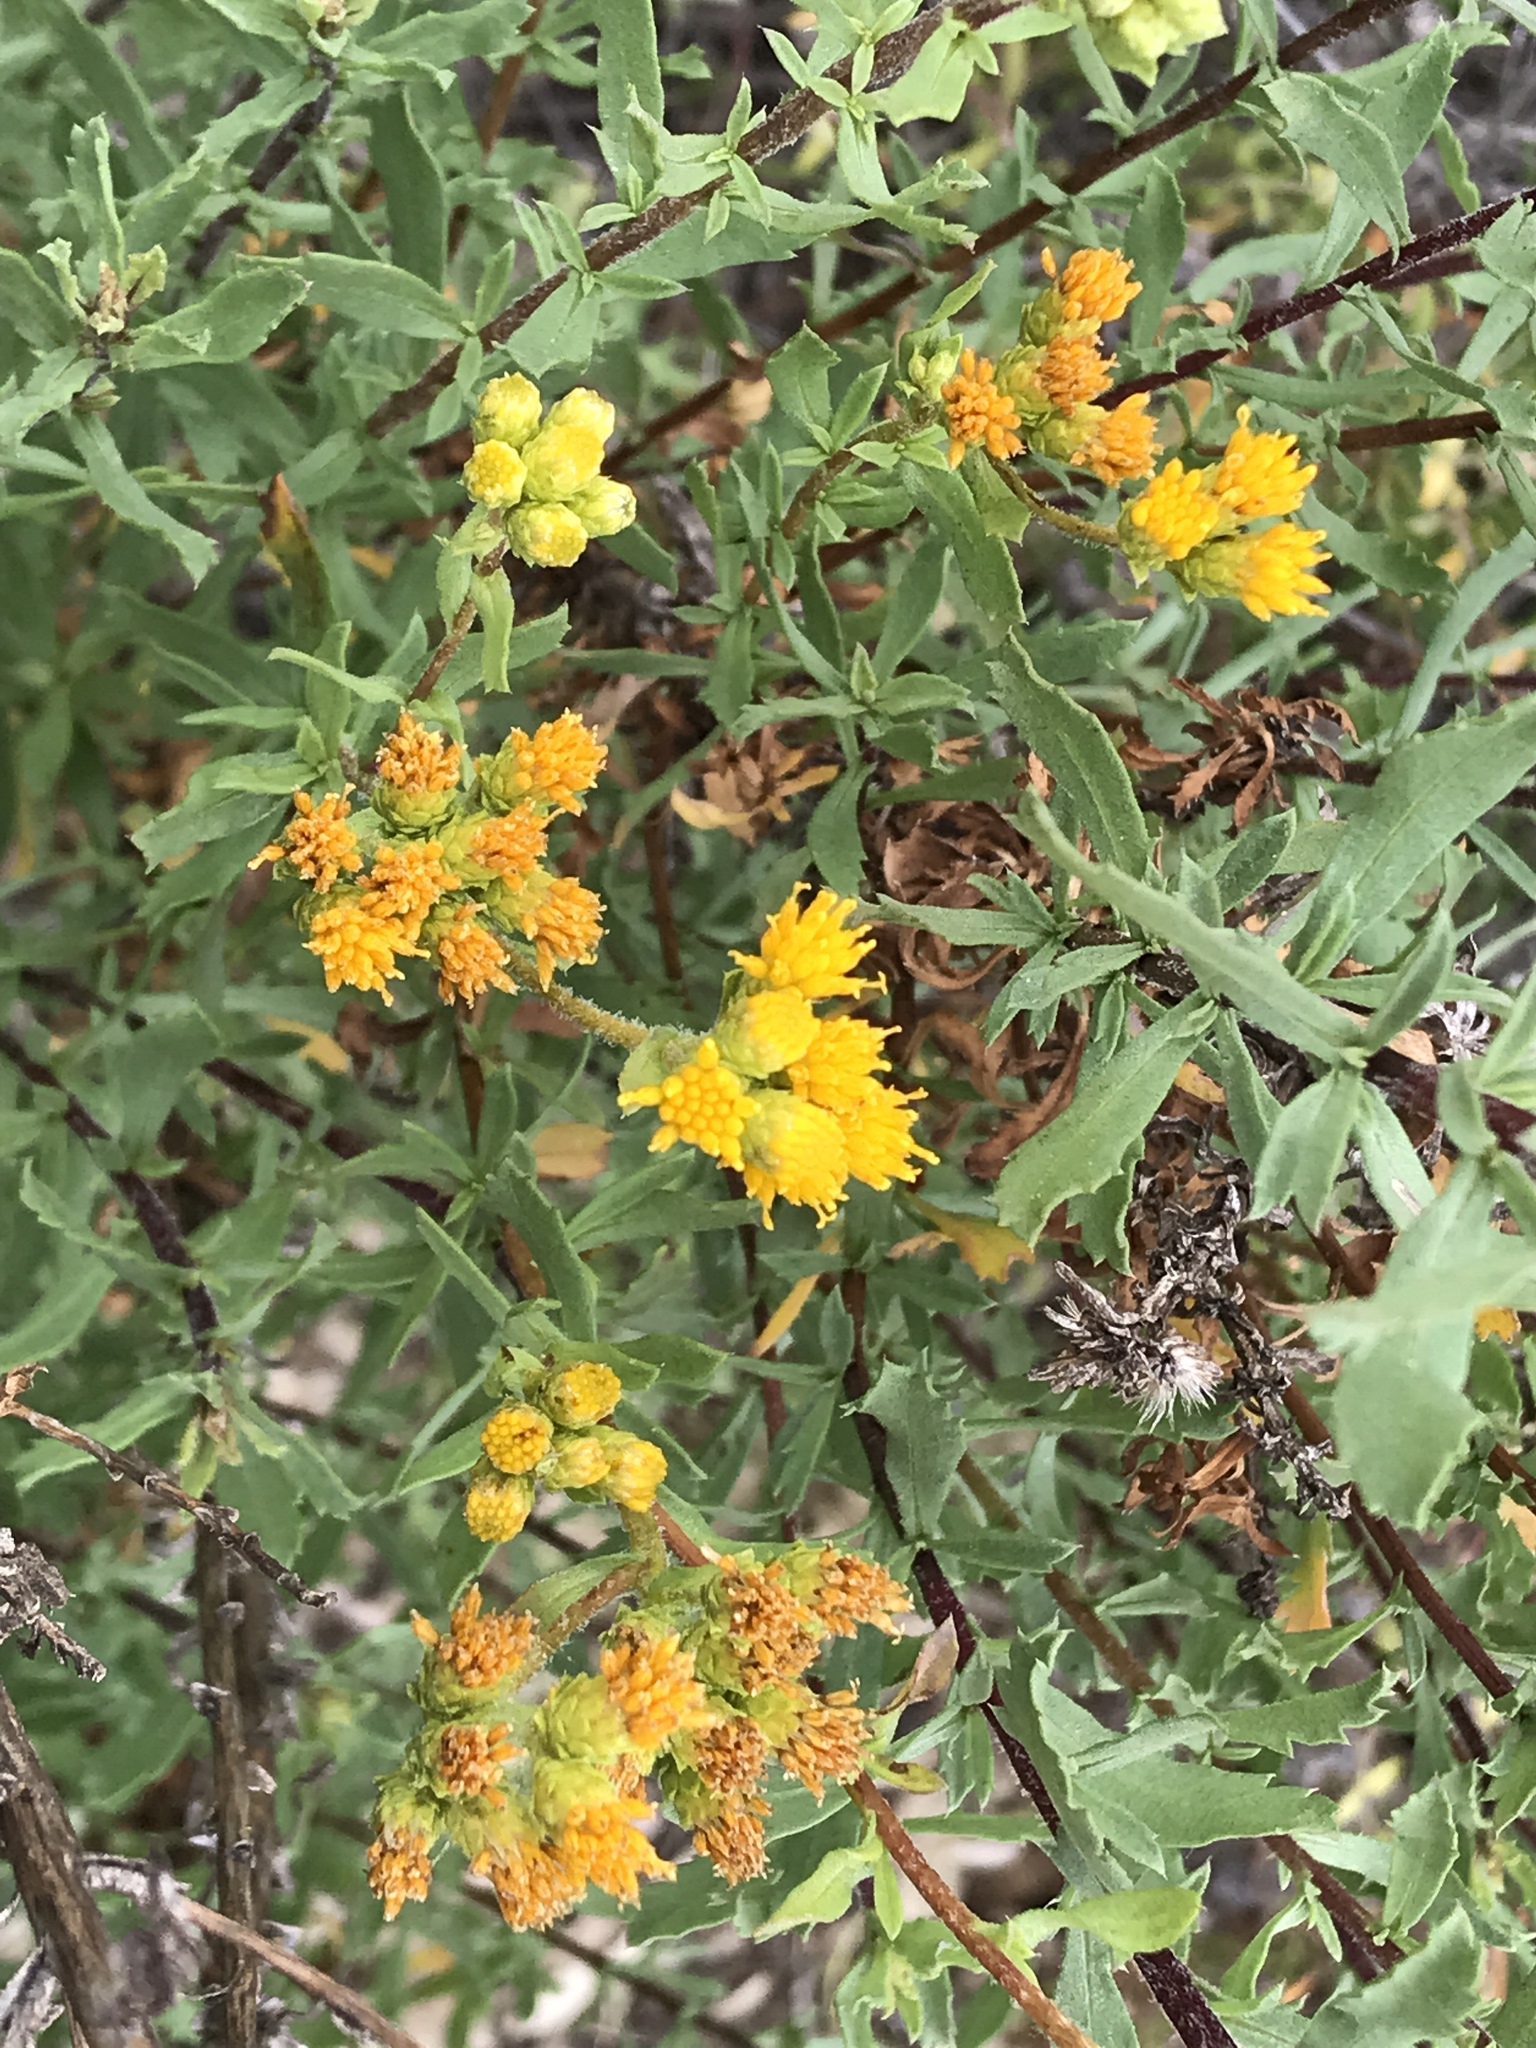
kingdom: Plantae
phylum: Tracheophyta
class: Magnoliopsida
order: Asterales
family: Asteraceae
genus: Isocoma
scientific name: Isocoma menziesii
